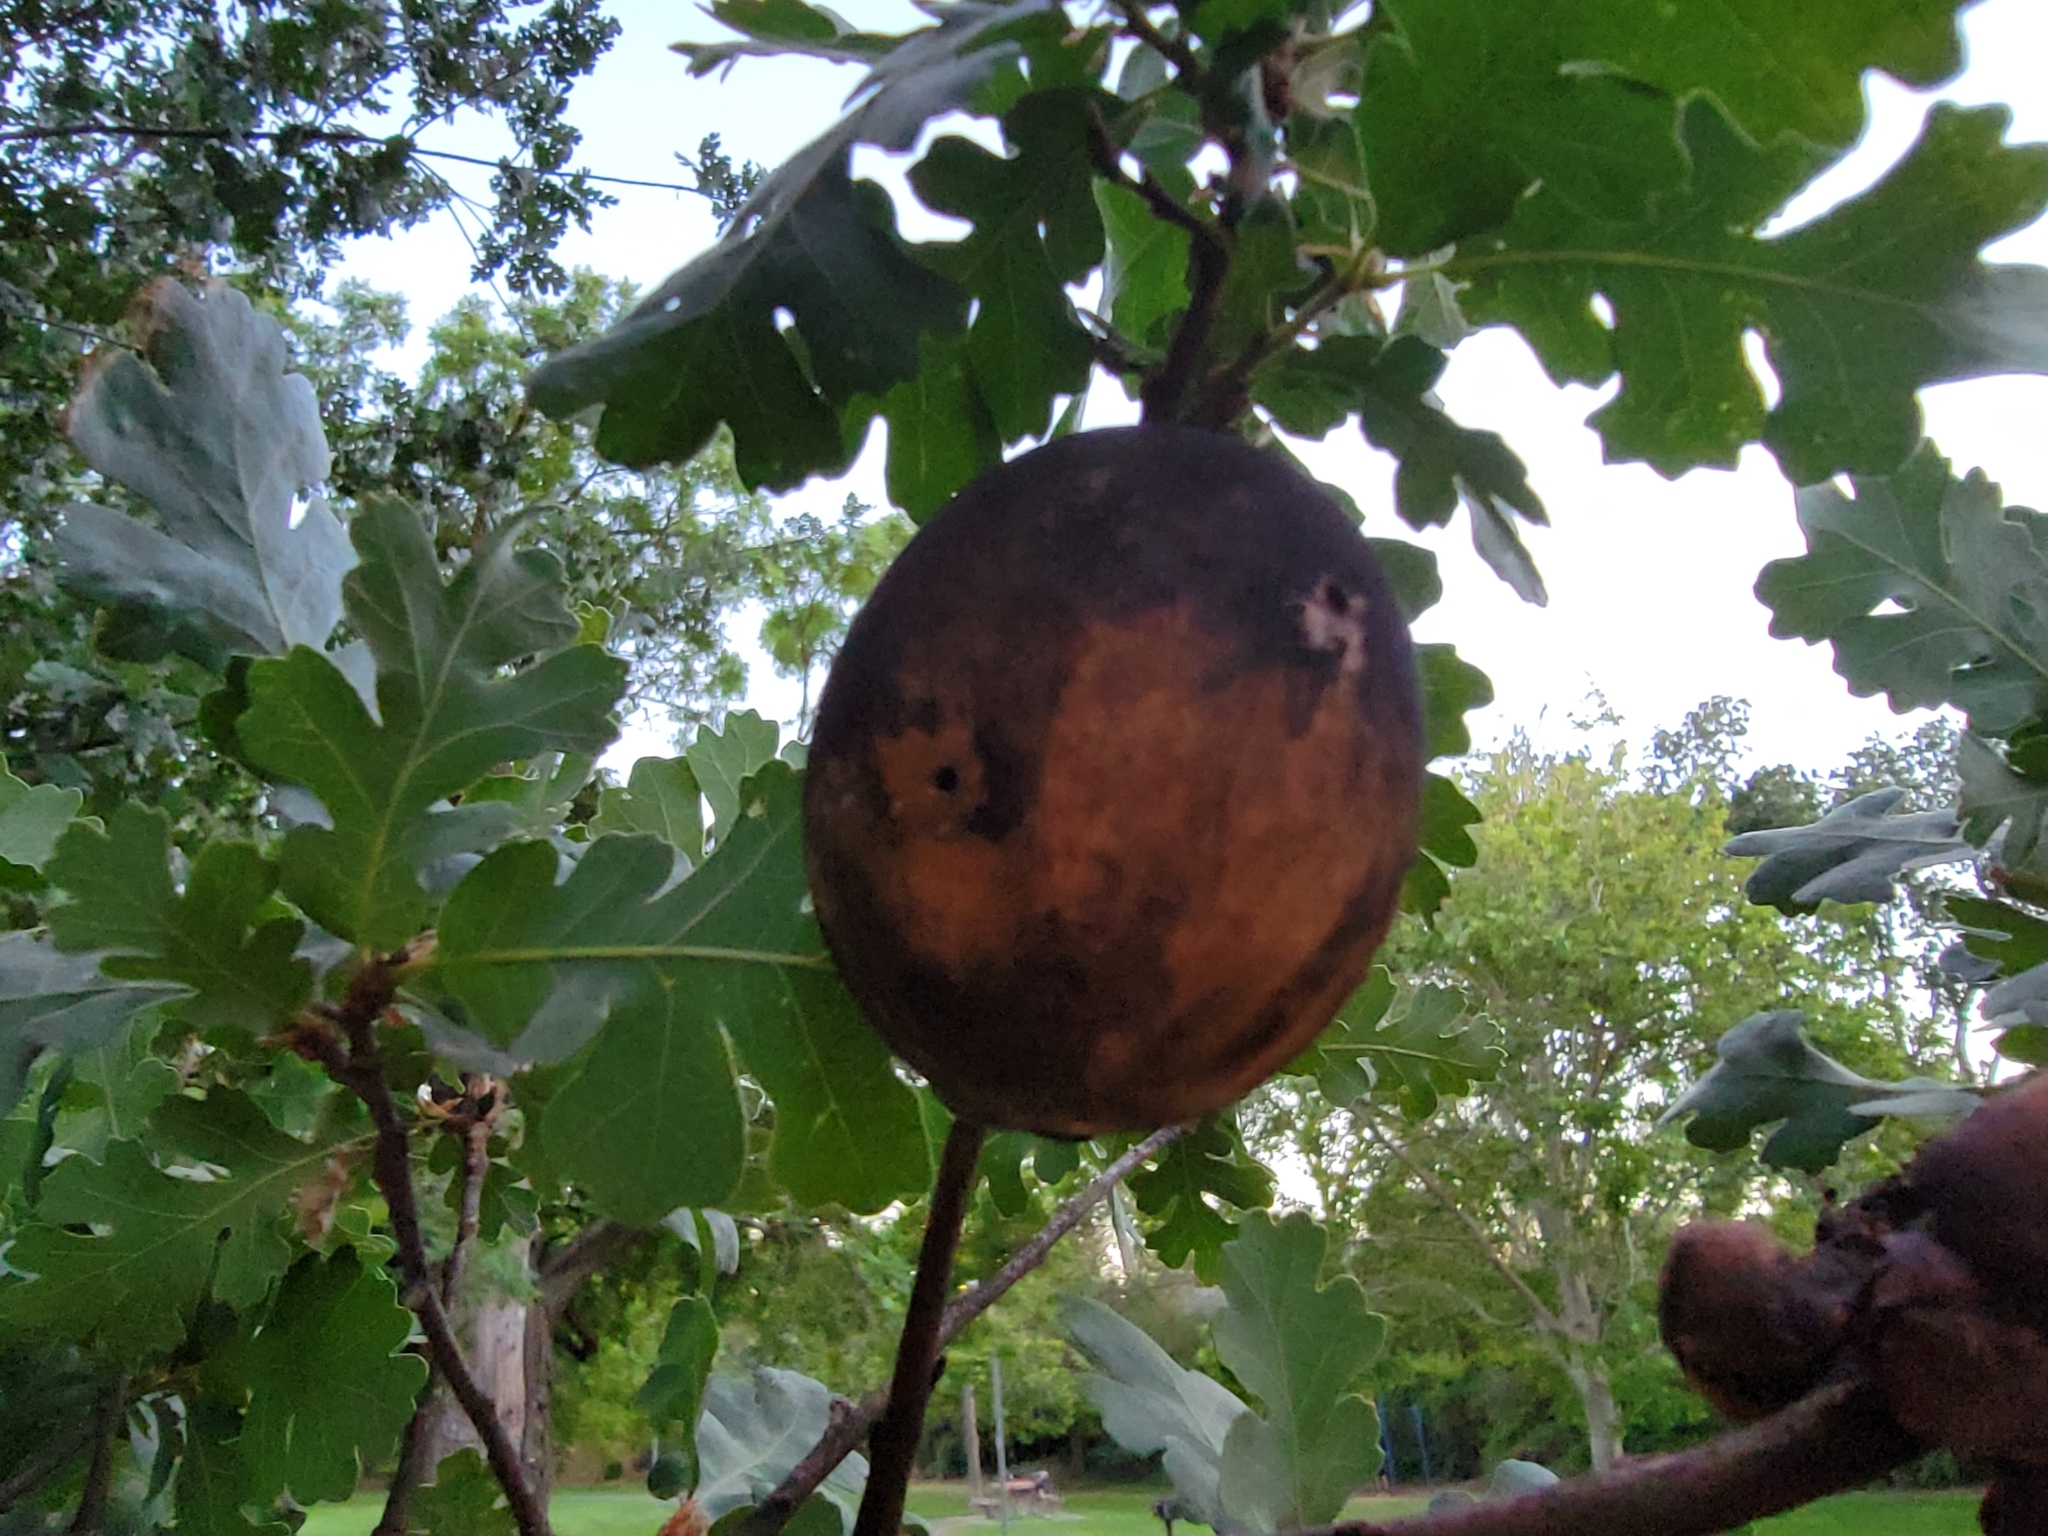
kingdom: Animalia
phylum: Arthropoda
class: Insecta
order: Hymenoptera
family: Cynipidae
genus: Andricus
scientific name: Andricus quercuscalifornicus
